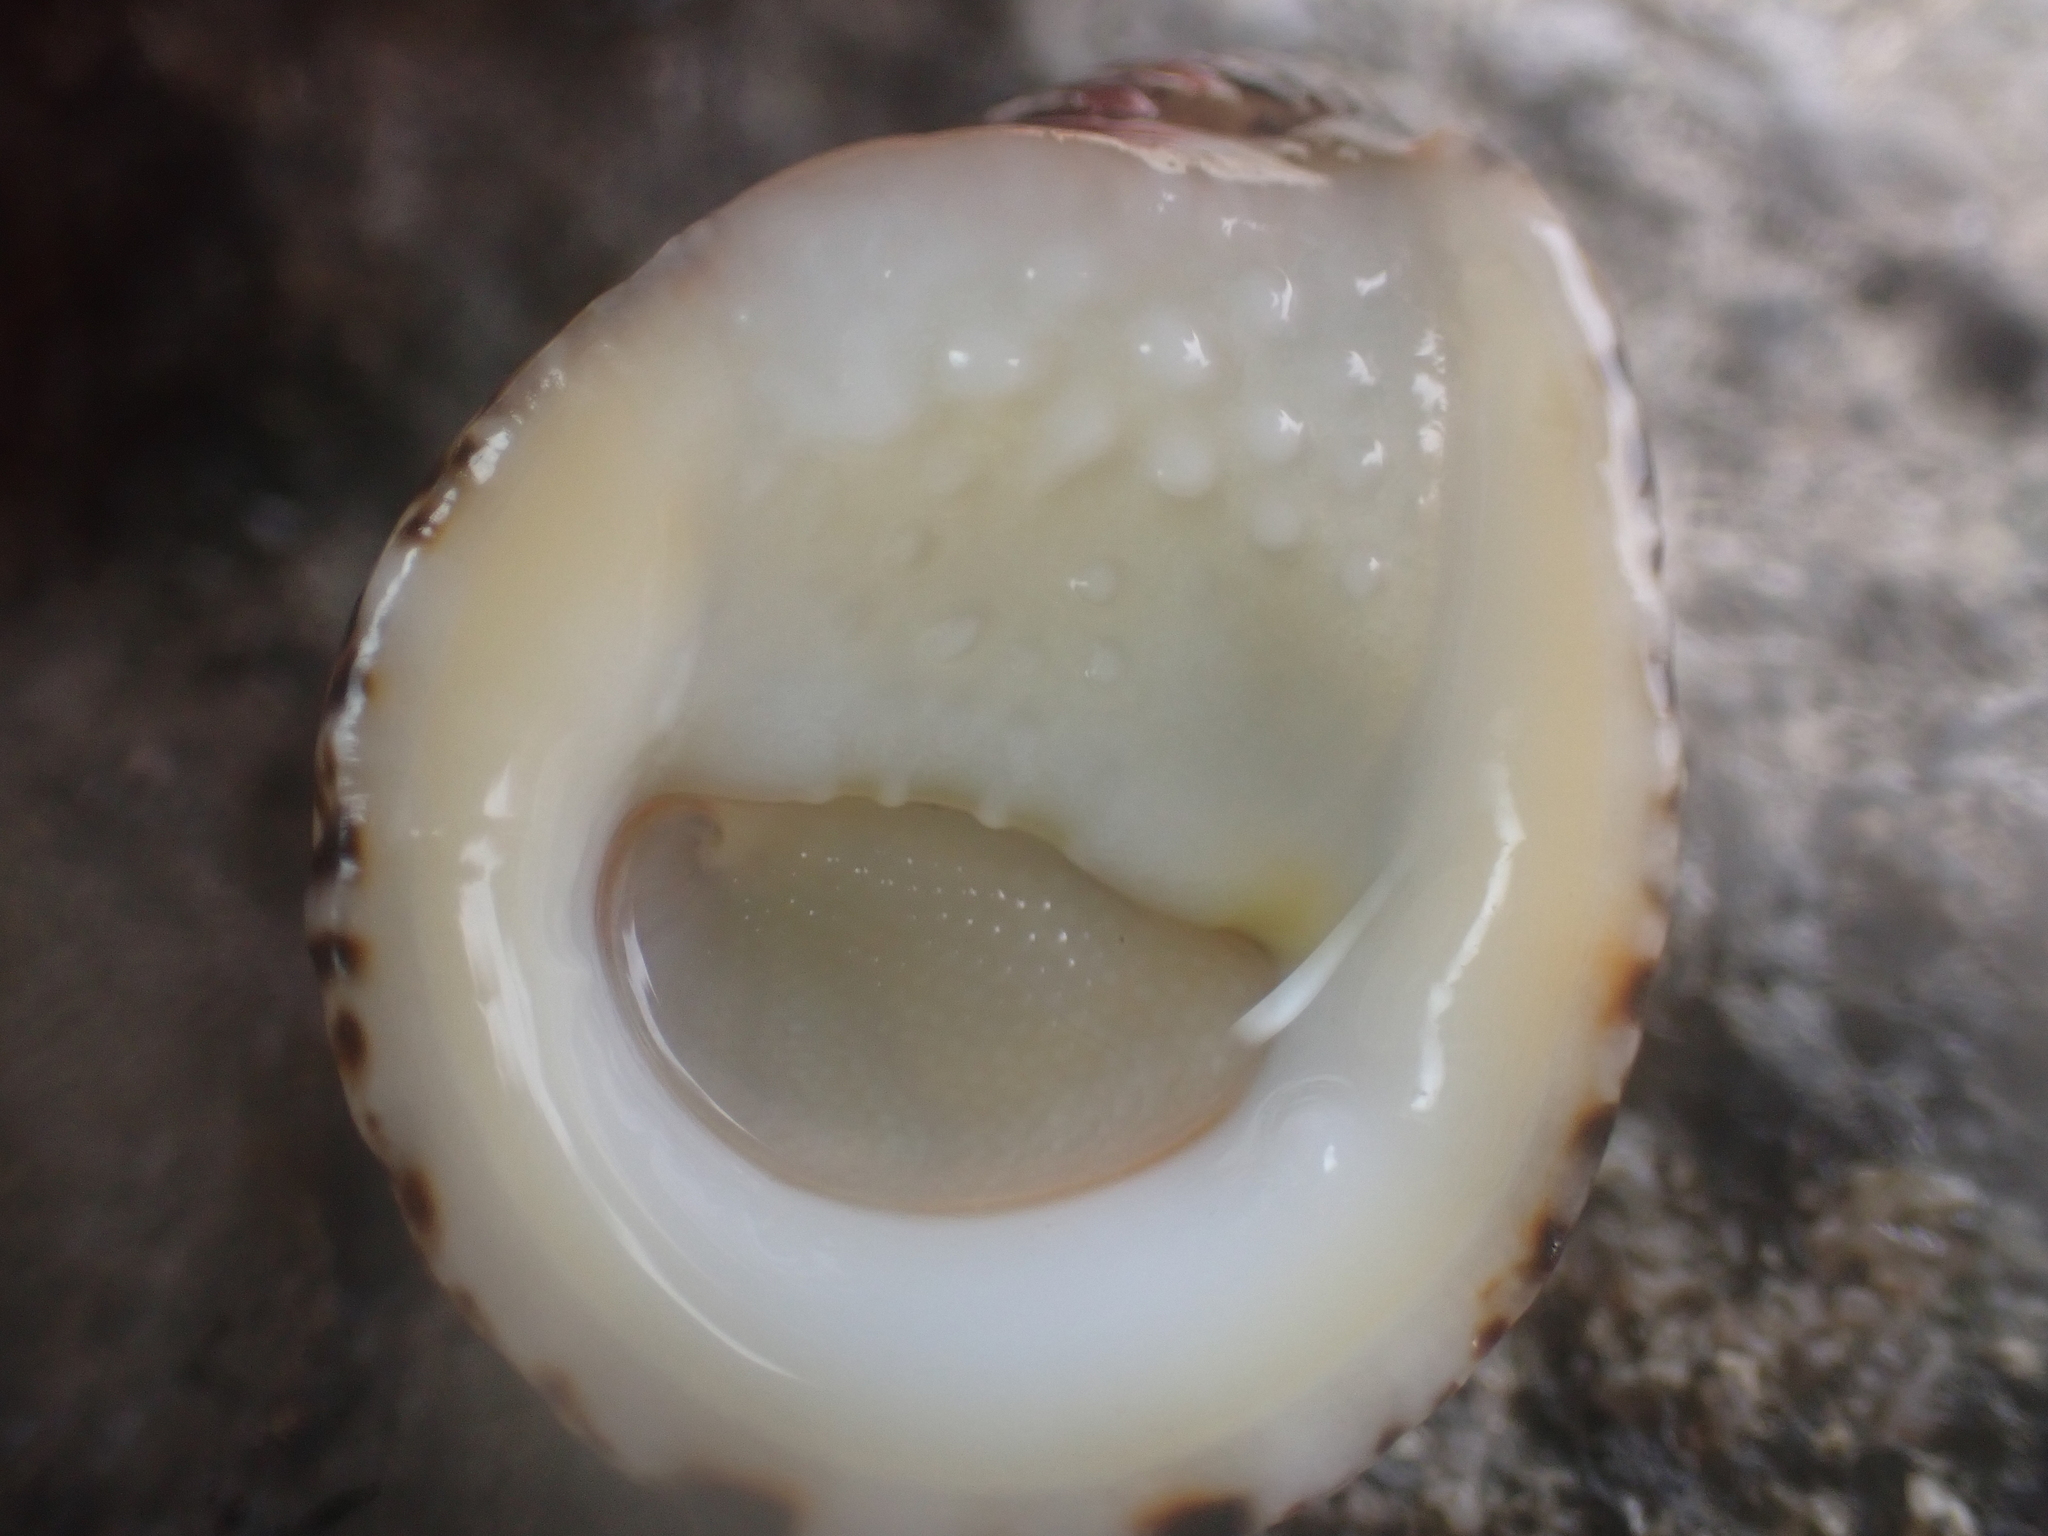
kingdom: Animalia
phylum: Mollusca
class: Gastropoda
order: Cycloneritida
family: Neritidae
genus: Nerita
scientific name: Nerita albicilla
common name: Blotched nerite
